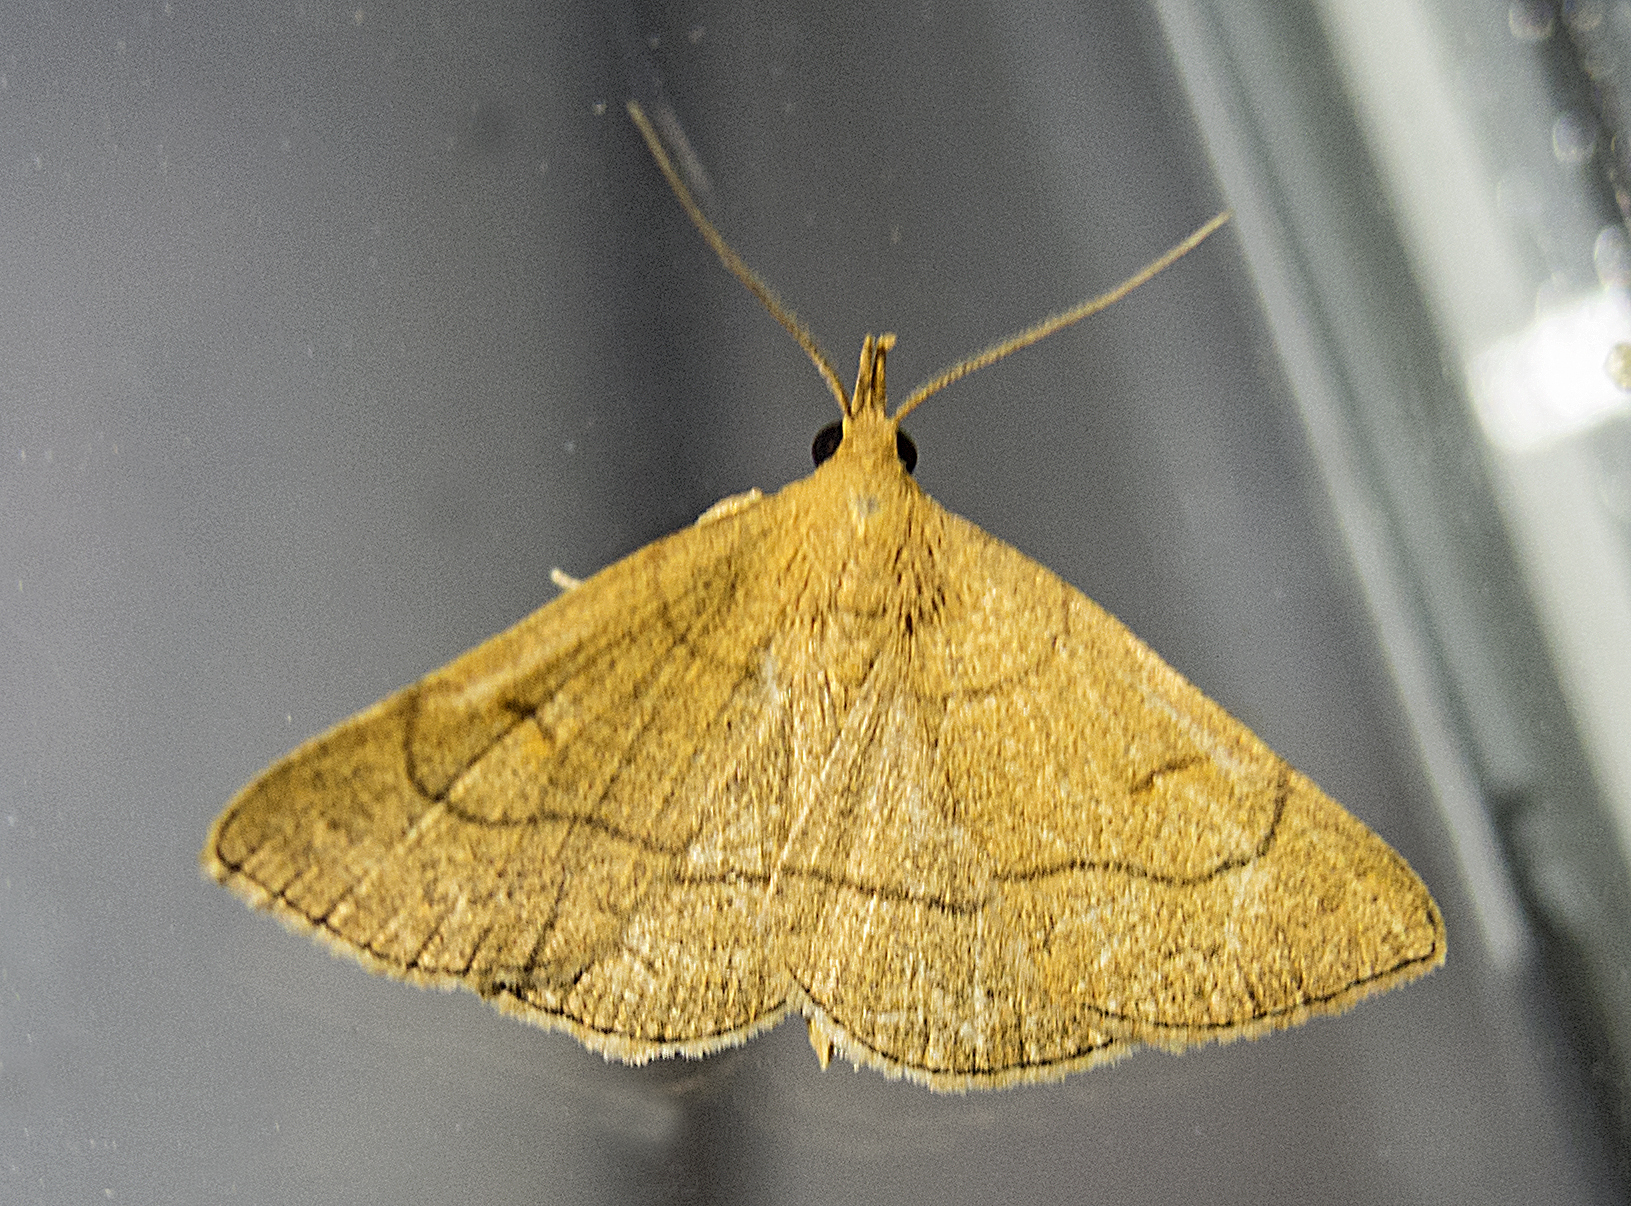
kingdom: Animalia
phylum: Arthropoda
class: Insecta
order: Lepidoptera
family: Erebidae
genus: Paracolax
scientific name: Paracolax tristalis
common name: Clay fan-foot
